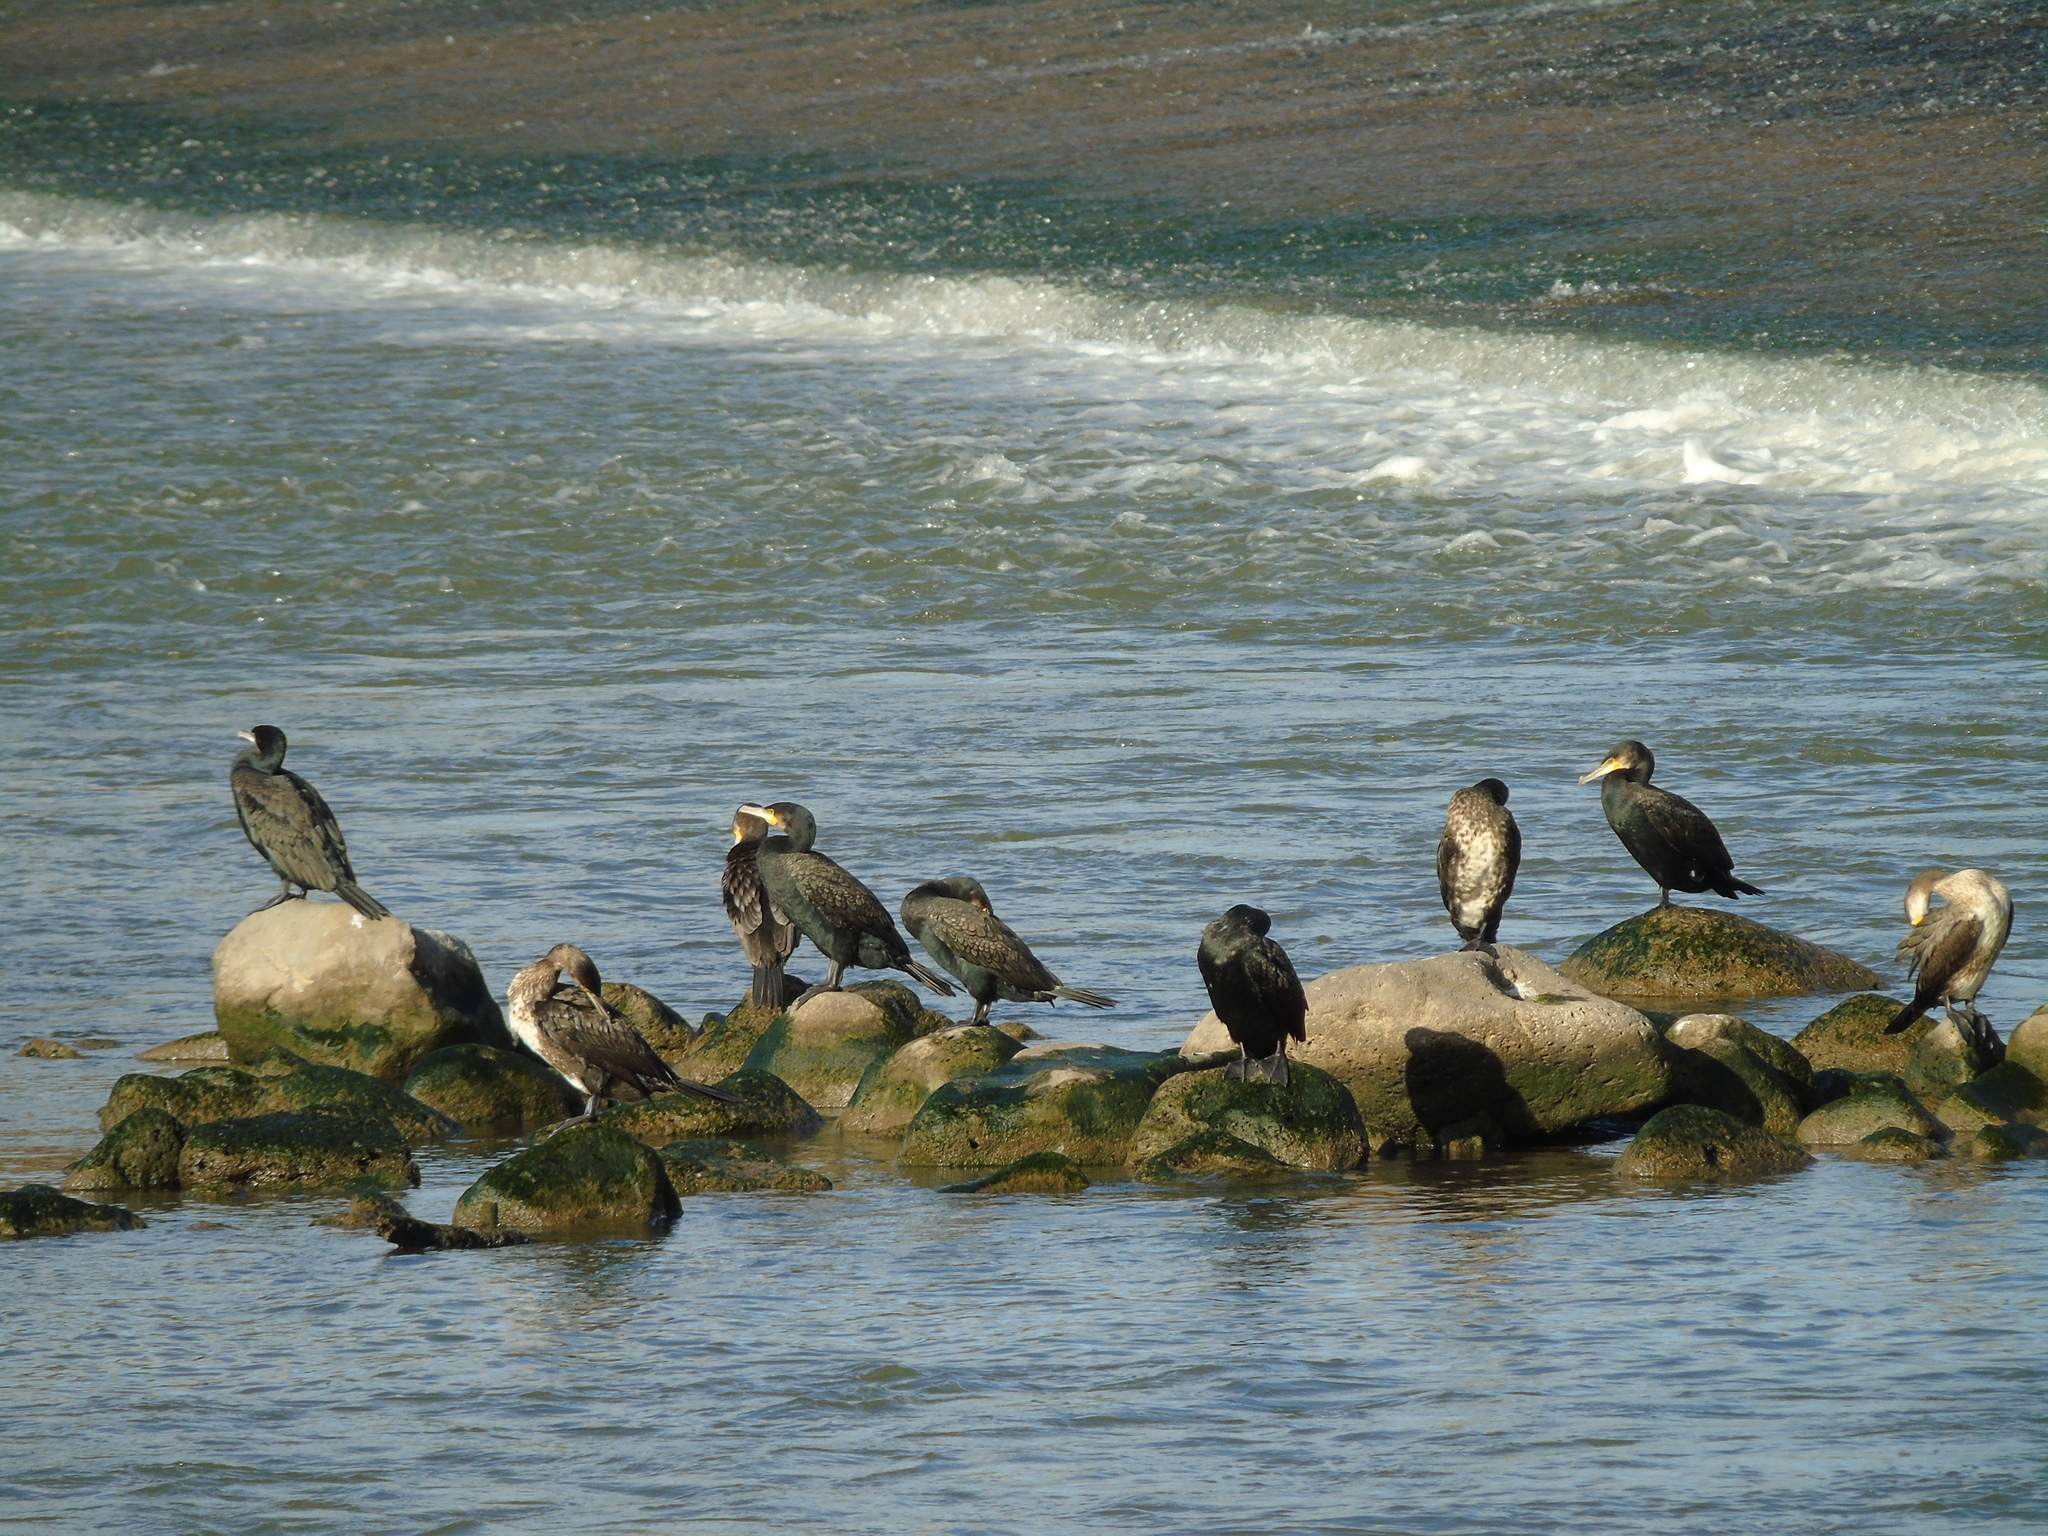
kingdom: Animalia
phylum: Chordata
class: Aves
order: Suliformes
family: Phalacrocoracidae
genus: Phalacrocorax
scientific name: Phalacrocorax carbo
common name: Great cormorant
